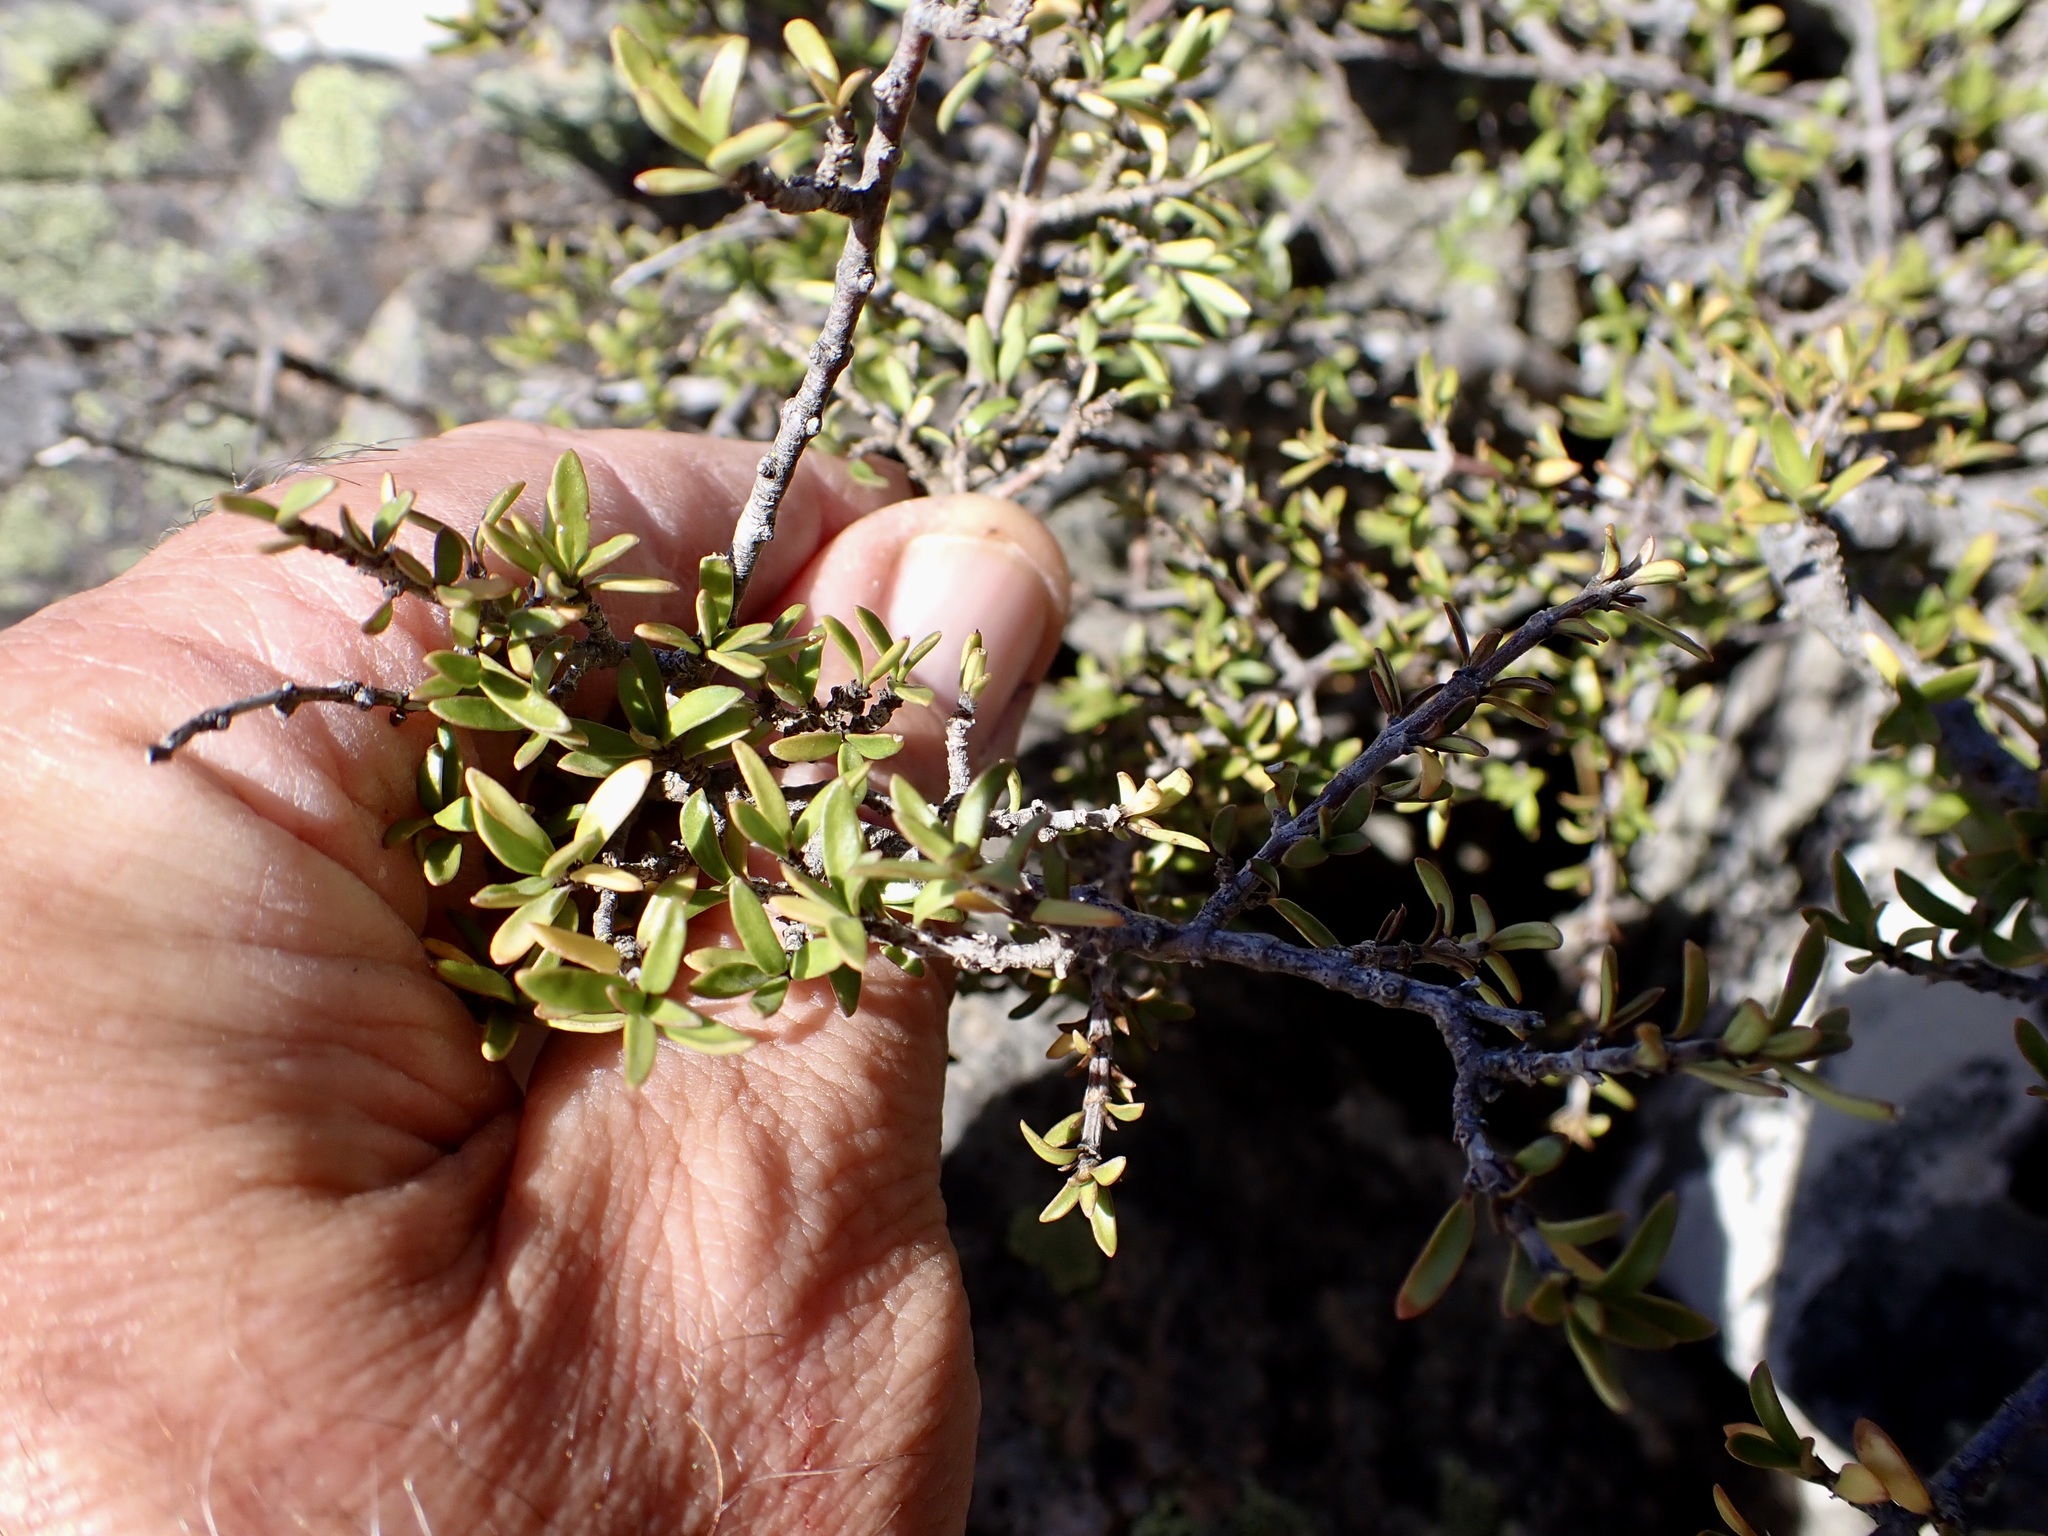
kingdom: Plantae
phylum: Tracheophyta
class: Magnoliopsida
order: Gentianales
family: Rubiaceae
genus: Coprosma
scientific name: Coprosma pseudocuneata
